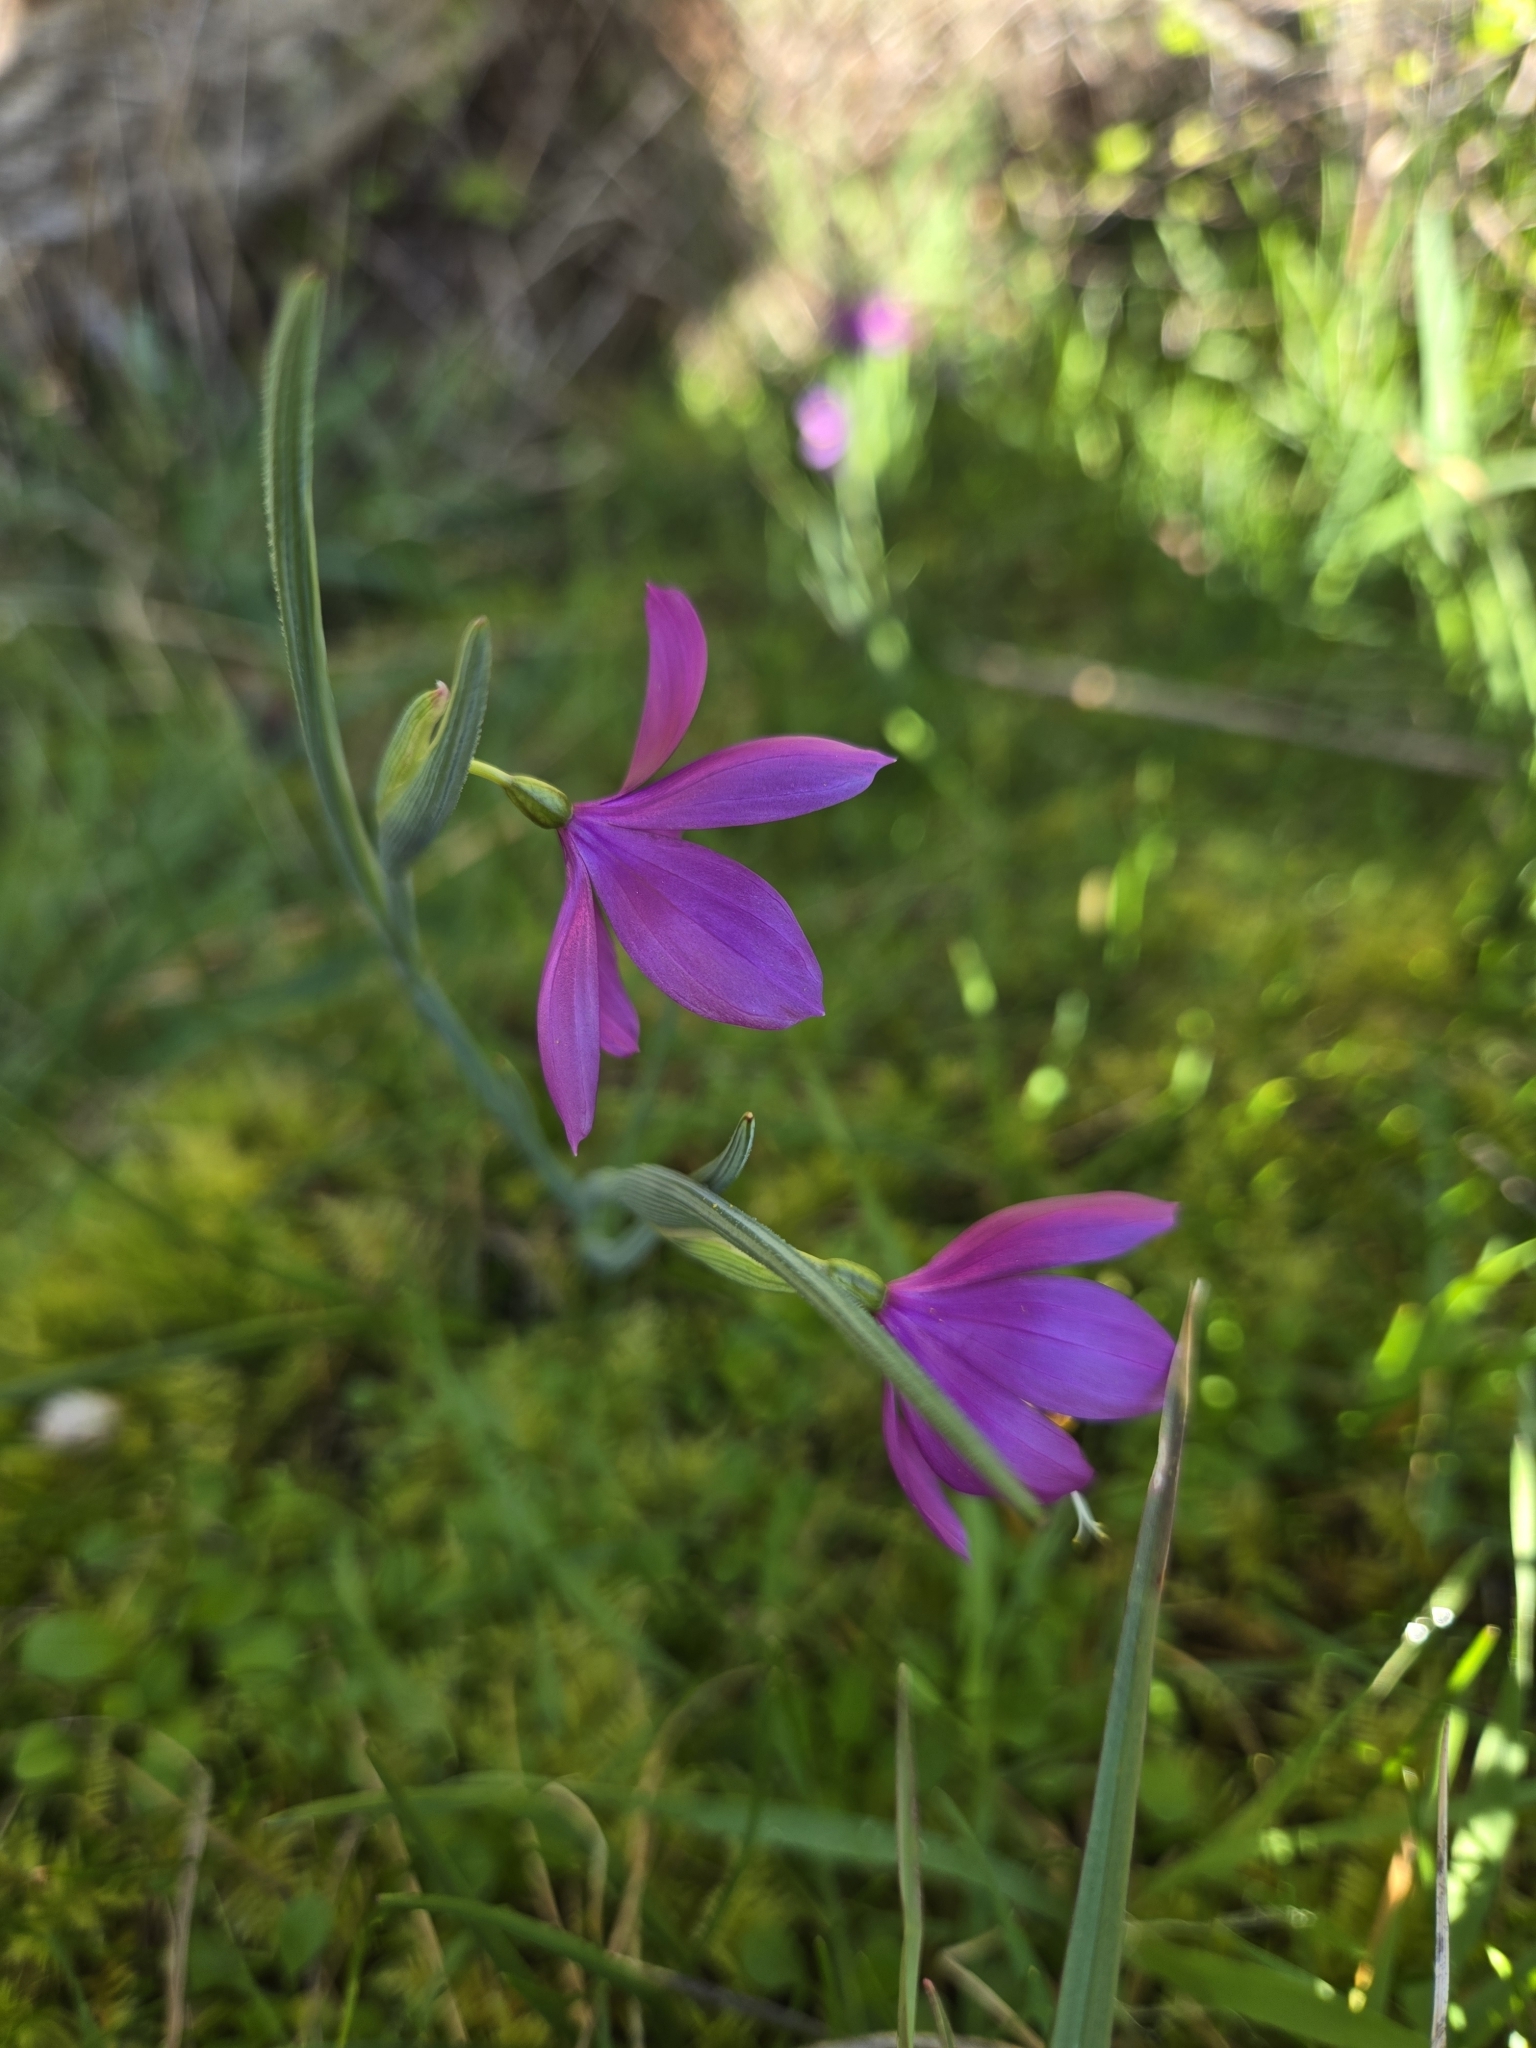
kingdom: Plantae
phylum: Tracheophyta
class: Liliopsida
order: Asparagales
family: Iridaceae
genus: Olsynium
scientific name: Olsynium douglasii
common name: Douglas' grasswidow
